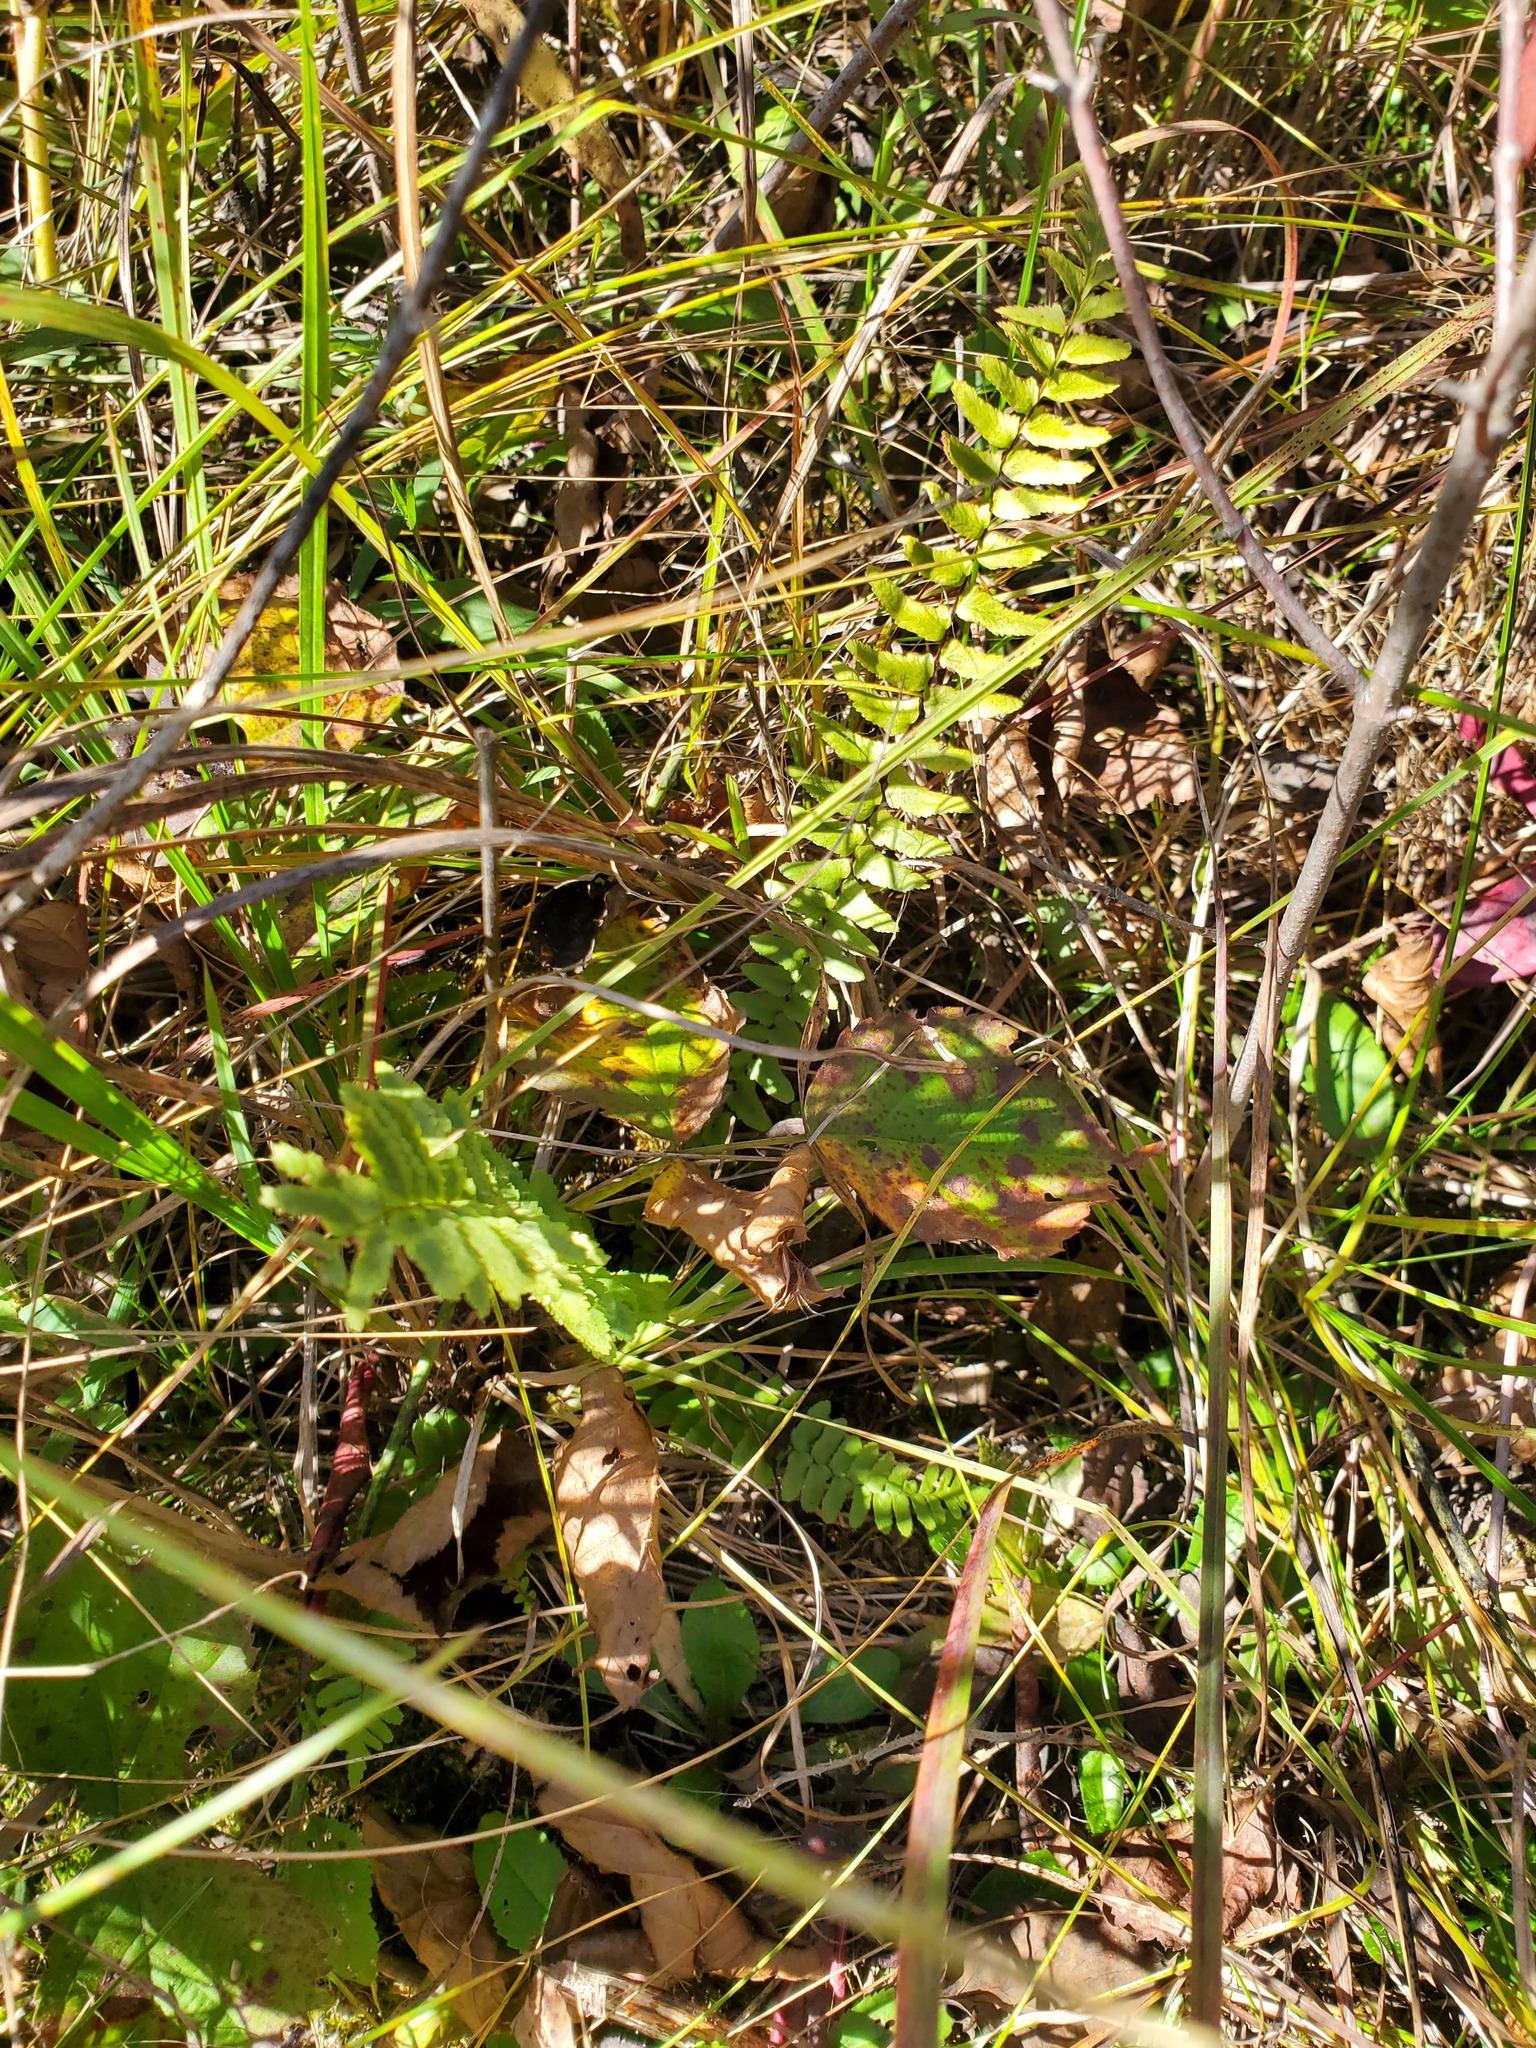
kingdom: Plantae
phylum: Tracheophyta
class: Polypodiopsida
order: Polypodiales
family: Aspleniaceae
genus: Asplenium
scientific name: Asplenium platyneuron
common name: Ebony spleenwort
